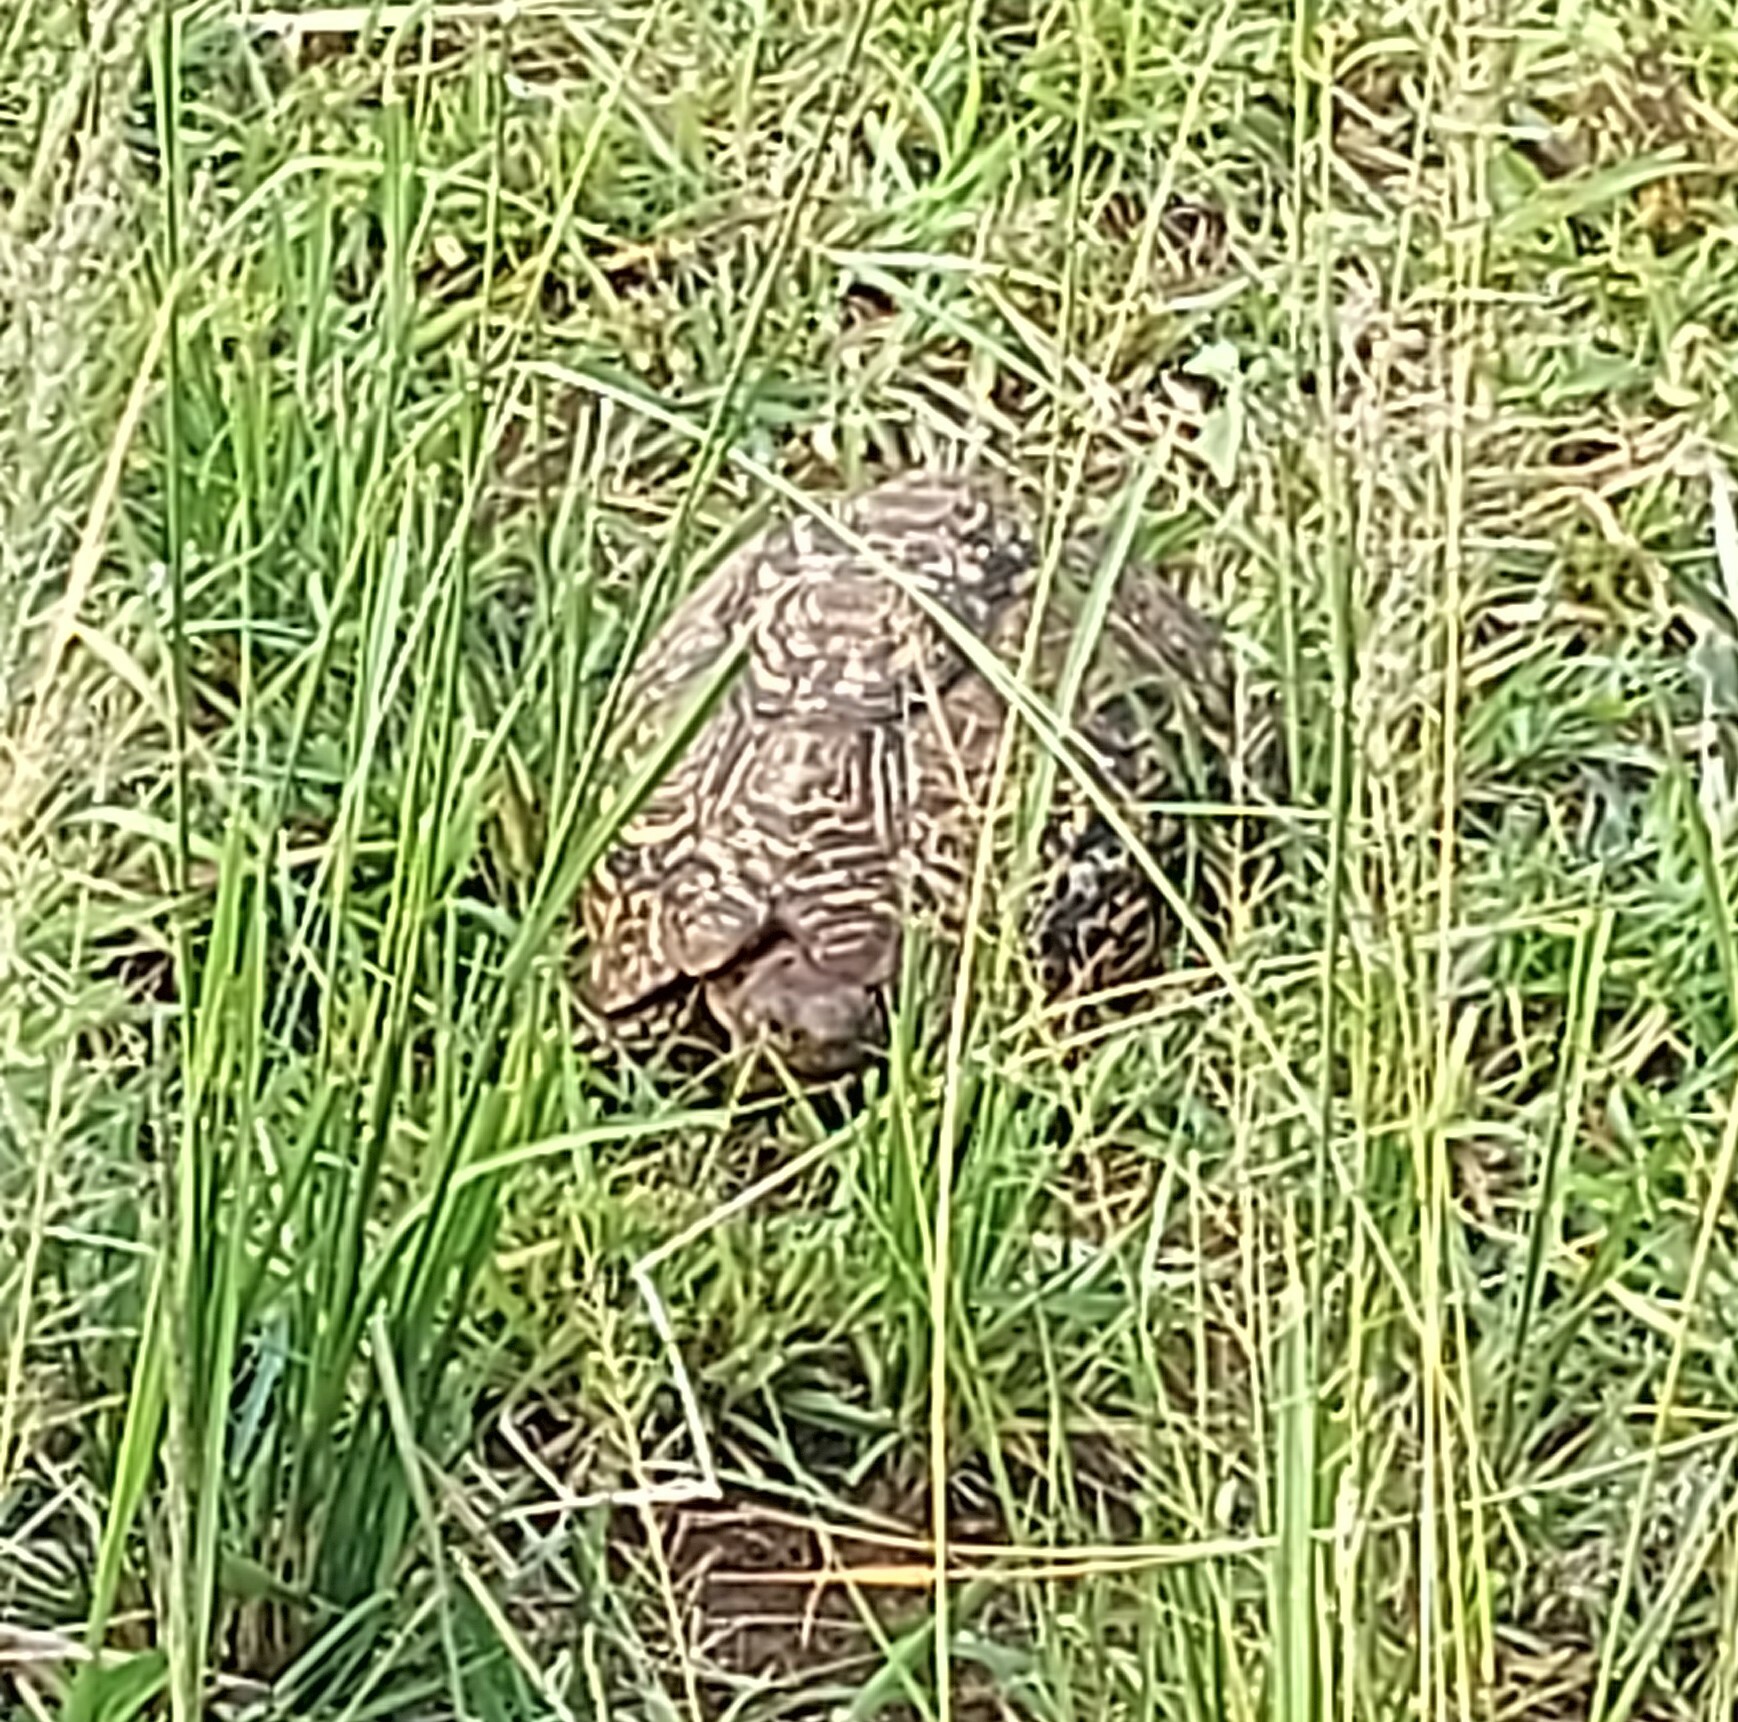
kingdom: Animalia
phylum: Chordata
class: Testudines
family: Testudinidae
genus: Stigmochelys
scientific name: Stigmochelys pardalis
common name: Leopard tortoise
